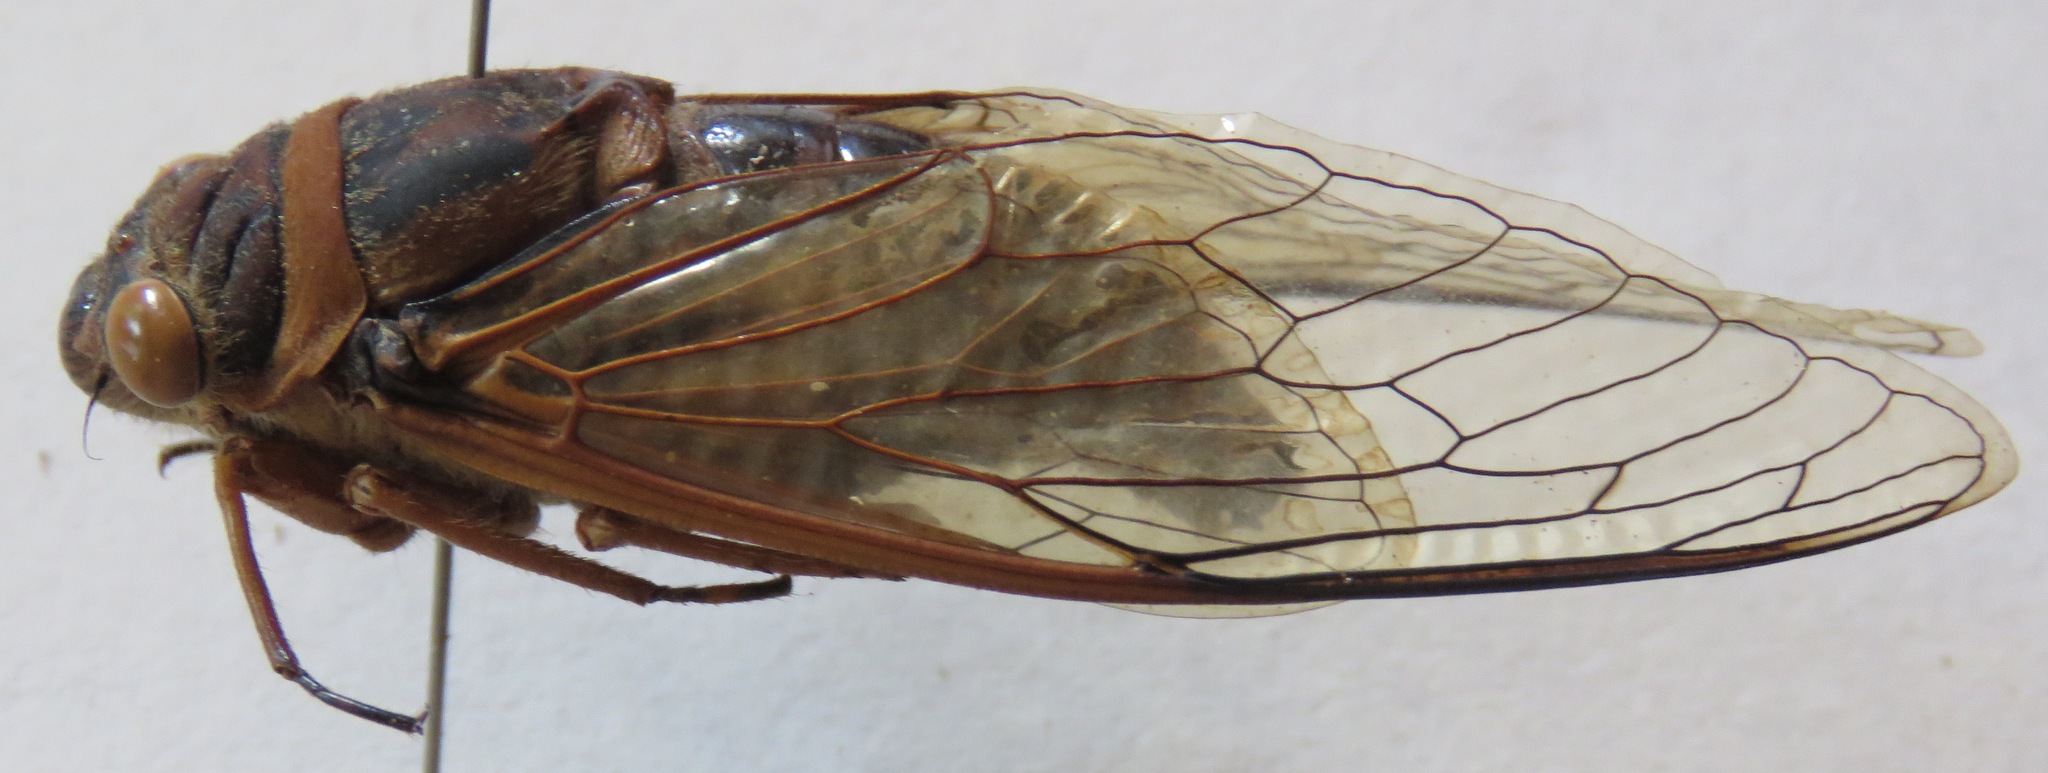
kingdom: Animalia
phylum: Arthropoda
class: Insecta
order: Hemiptera
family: Cicadidae
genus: Diceroprocta
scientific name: Diceroprocta ruatana
